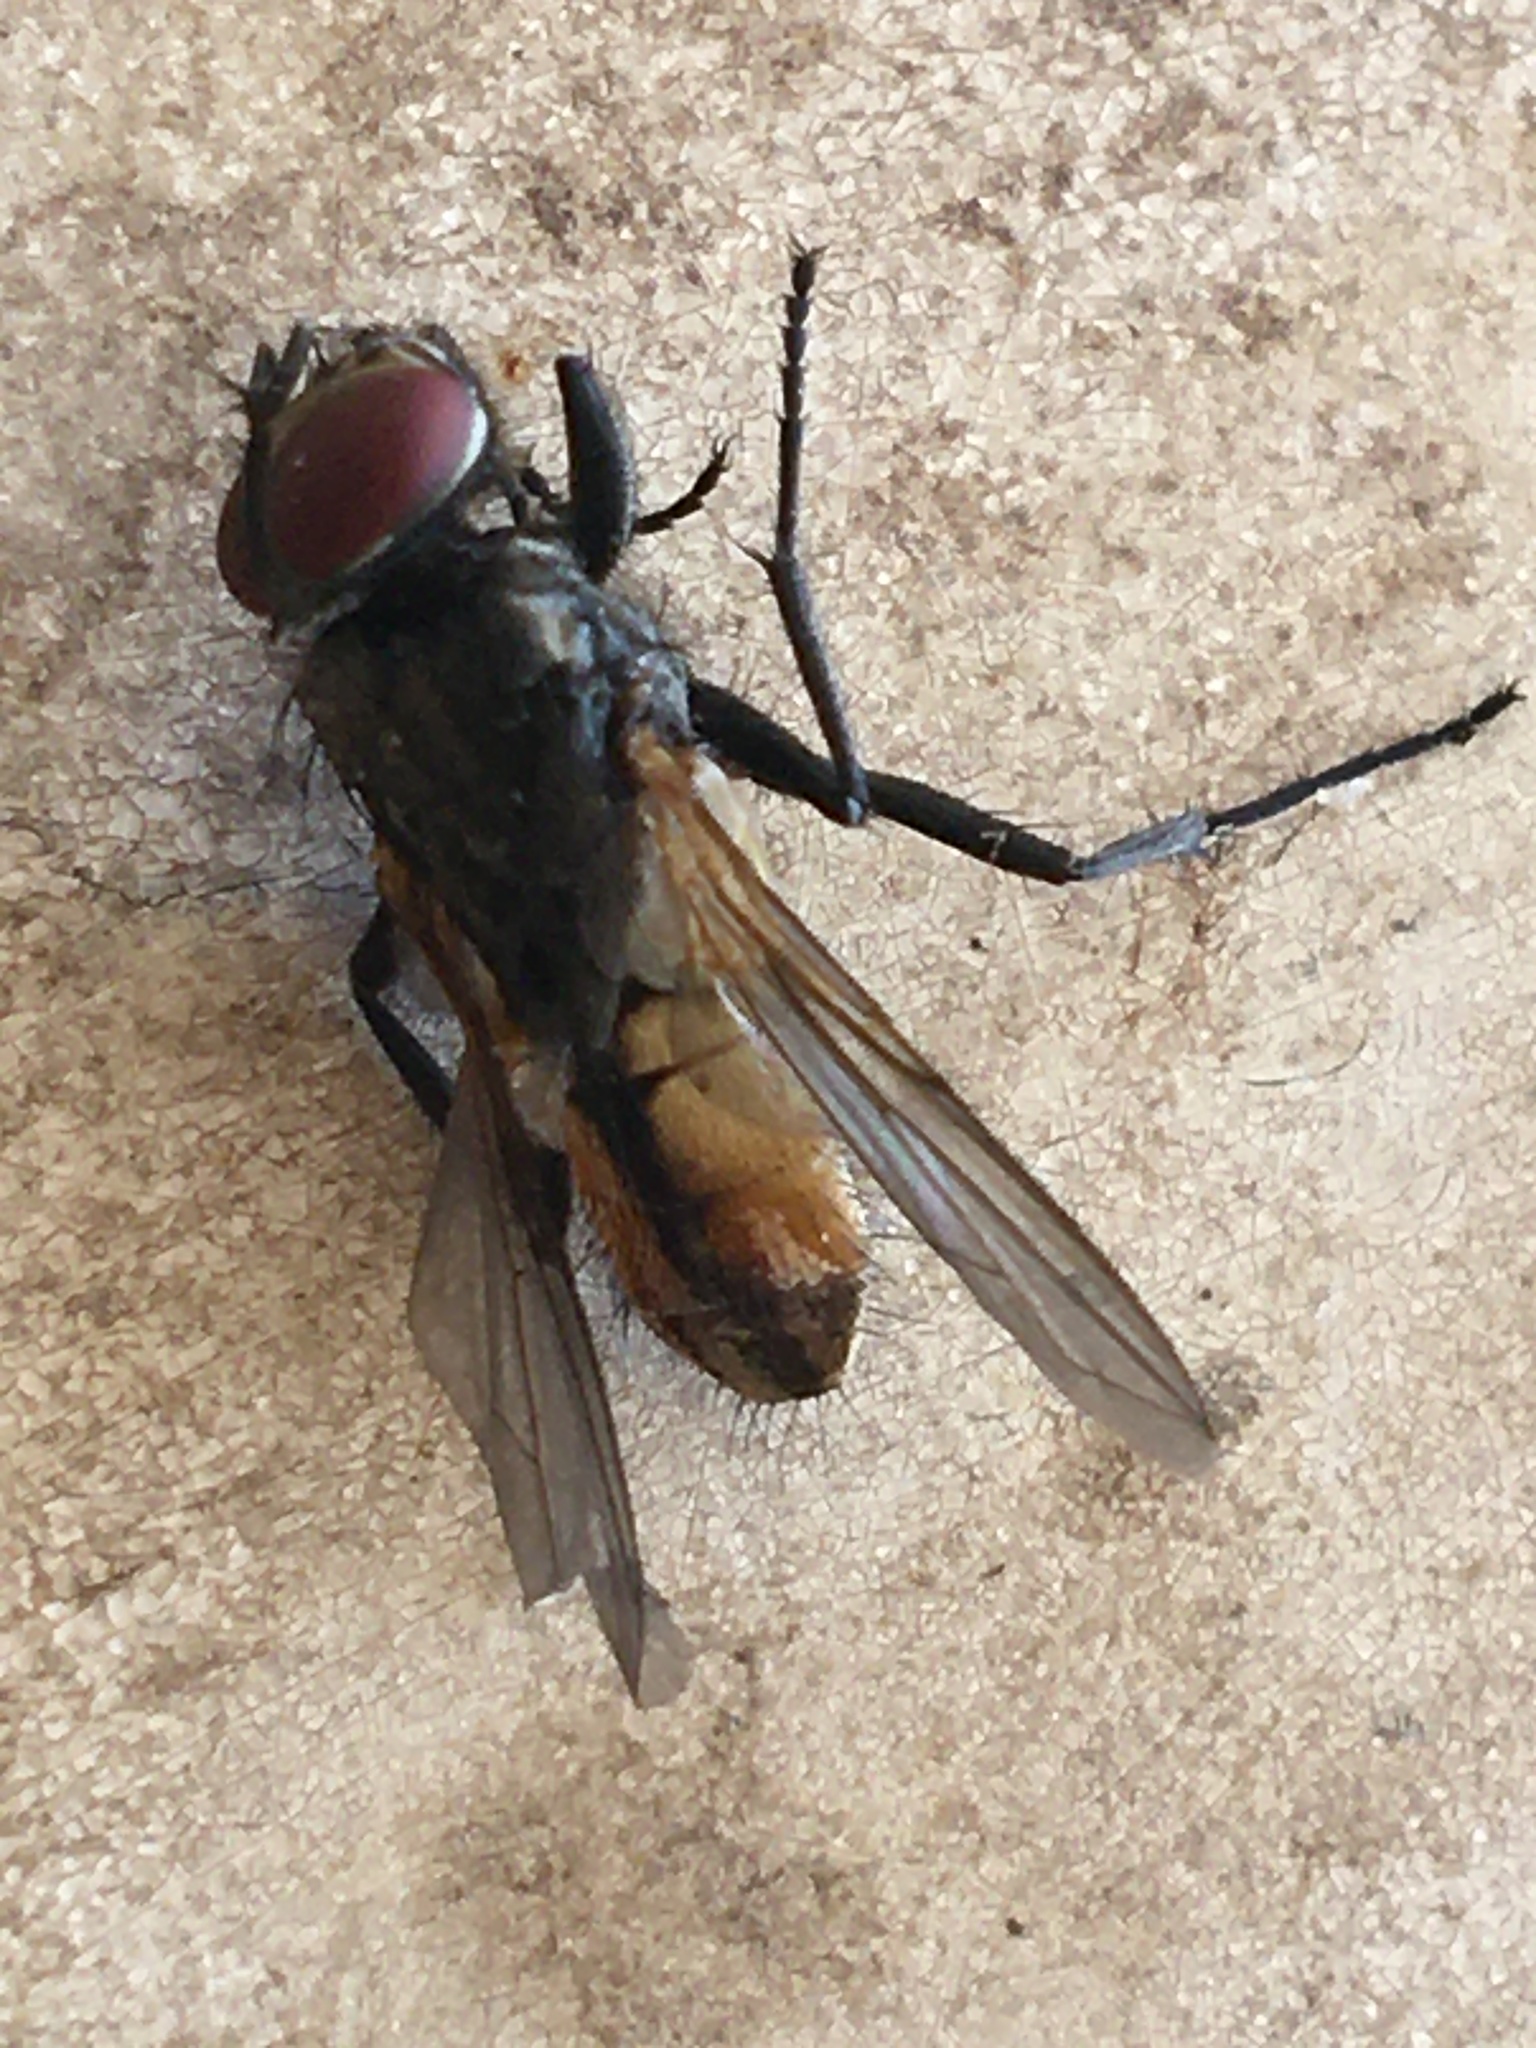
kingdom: Animalia
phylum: Arthropoda
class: Insecta
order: Diptera
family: Muscidae
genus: Musca
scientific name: Musca domestica
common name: House fly
